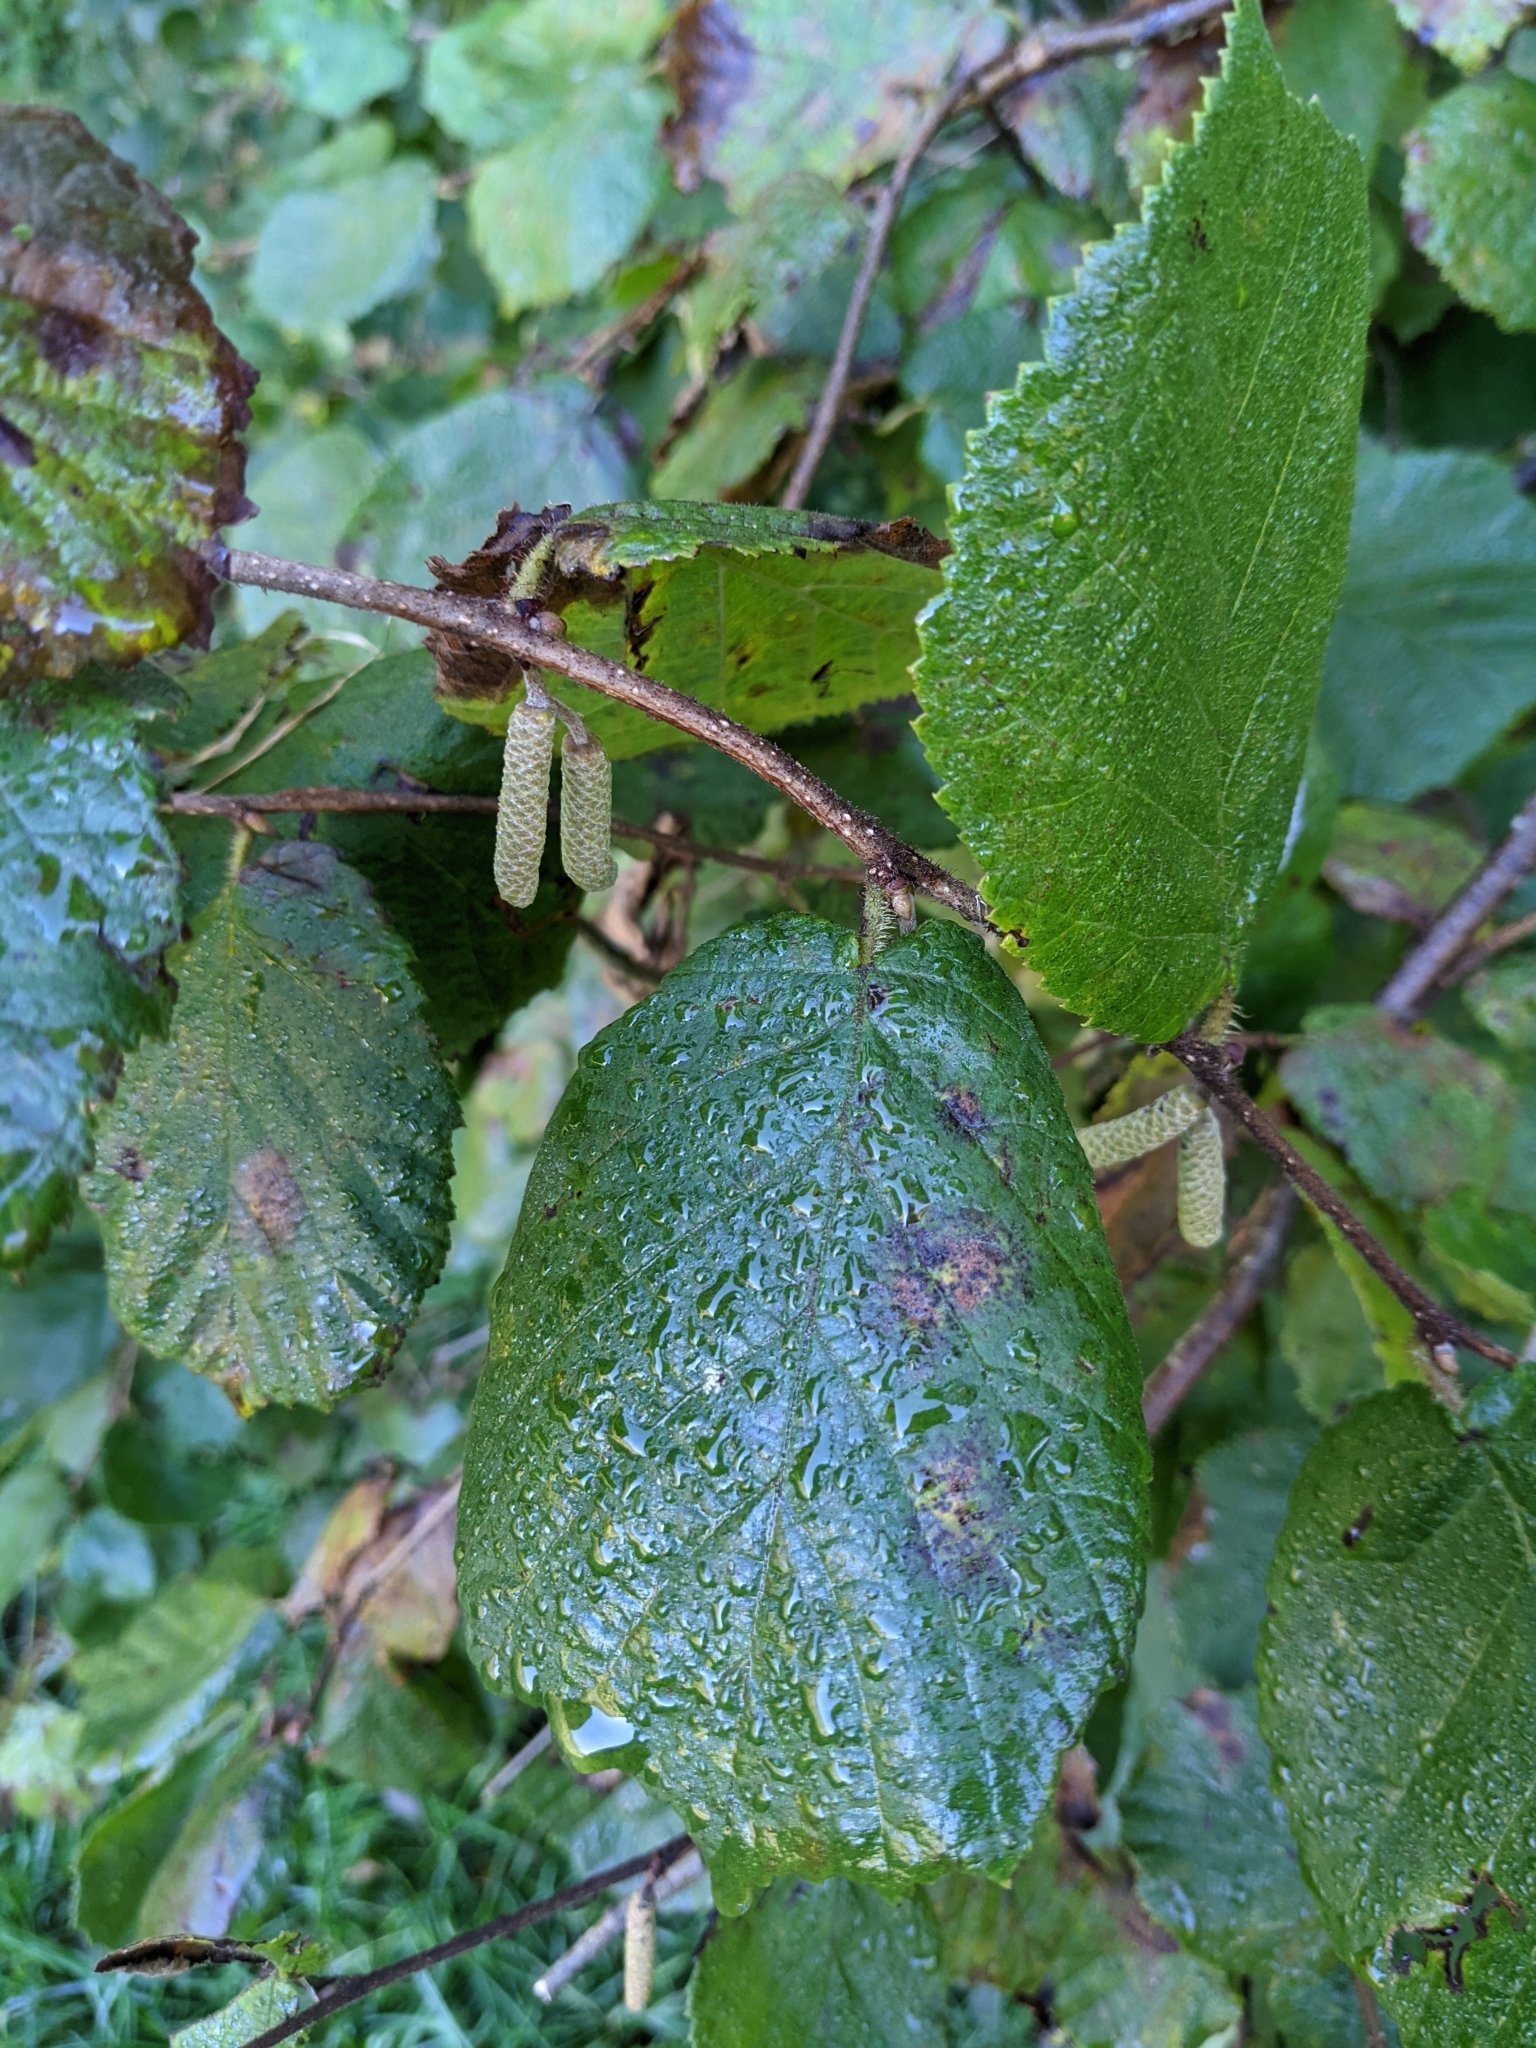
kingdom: Plantae
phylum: Tracheophyta
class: Magnoliopsida
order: Fagales
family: Betulaceae
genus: Corylus
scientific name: Corylus avellana
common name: European hazel
